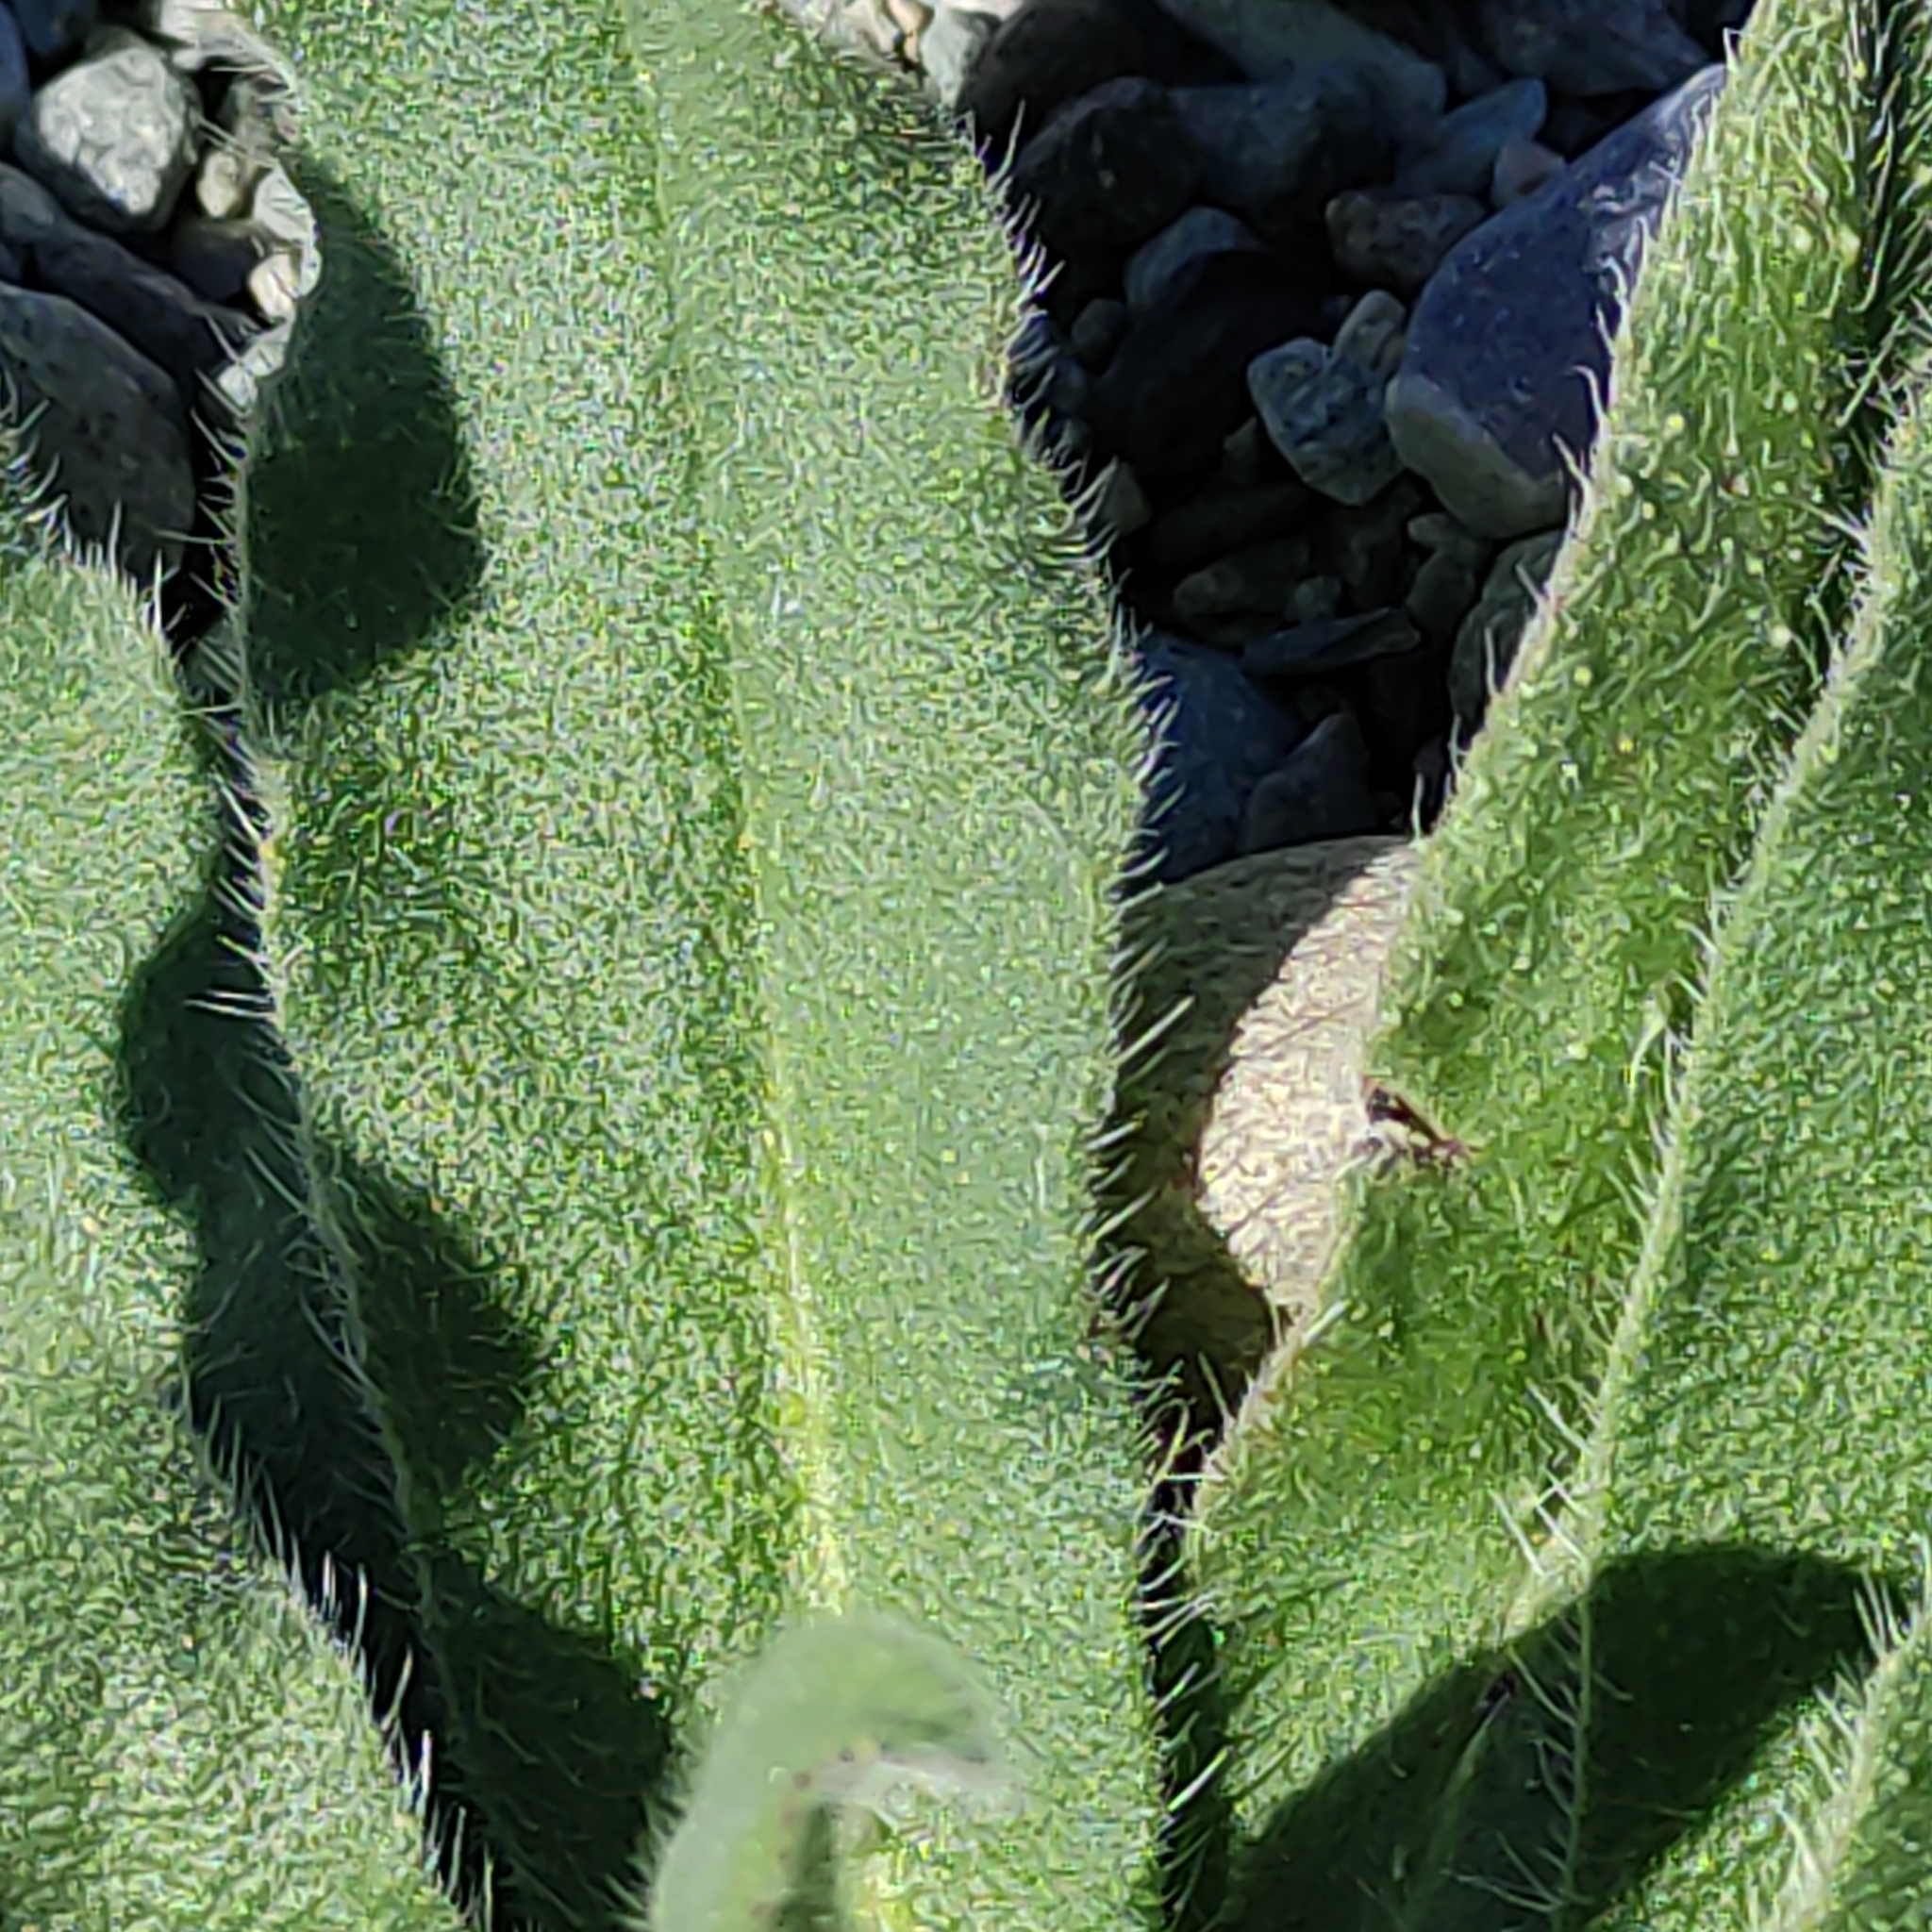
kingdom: Plantae
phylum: Tracheophyta
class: Magnoliopsida
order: Boraginales
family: Boraginaceae
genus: Echium
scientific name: Echium vulgare
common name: Common viper's bugloss
